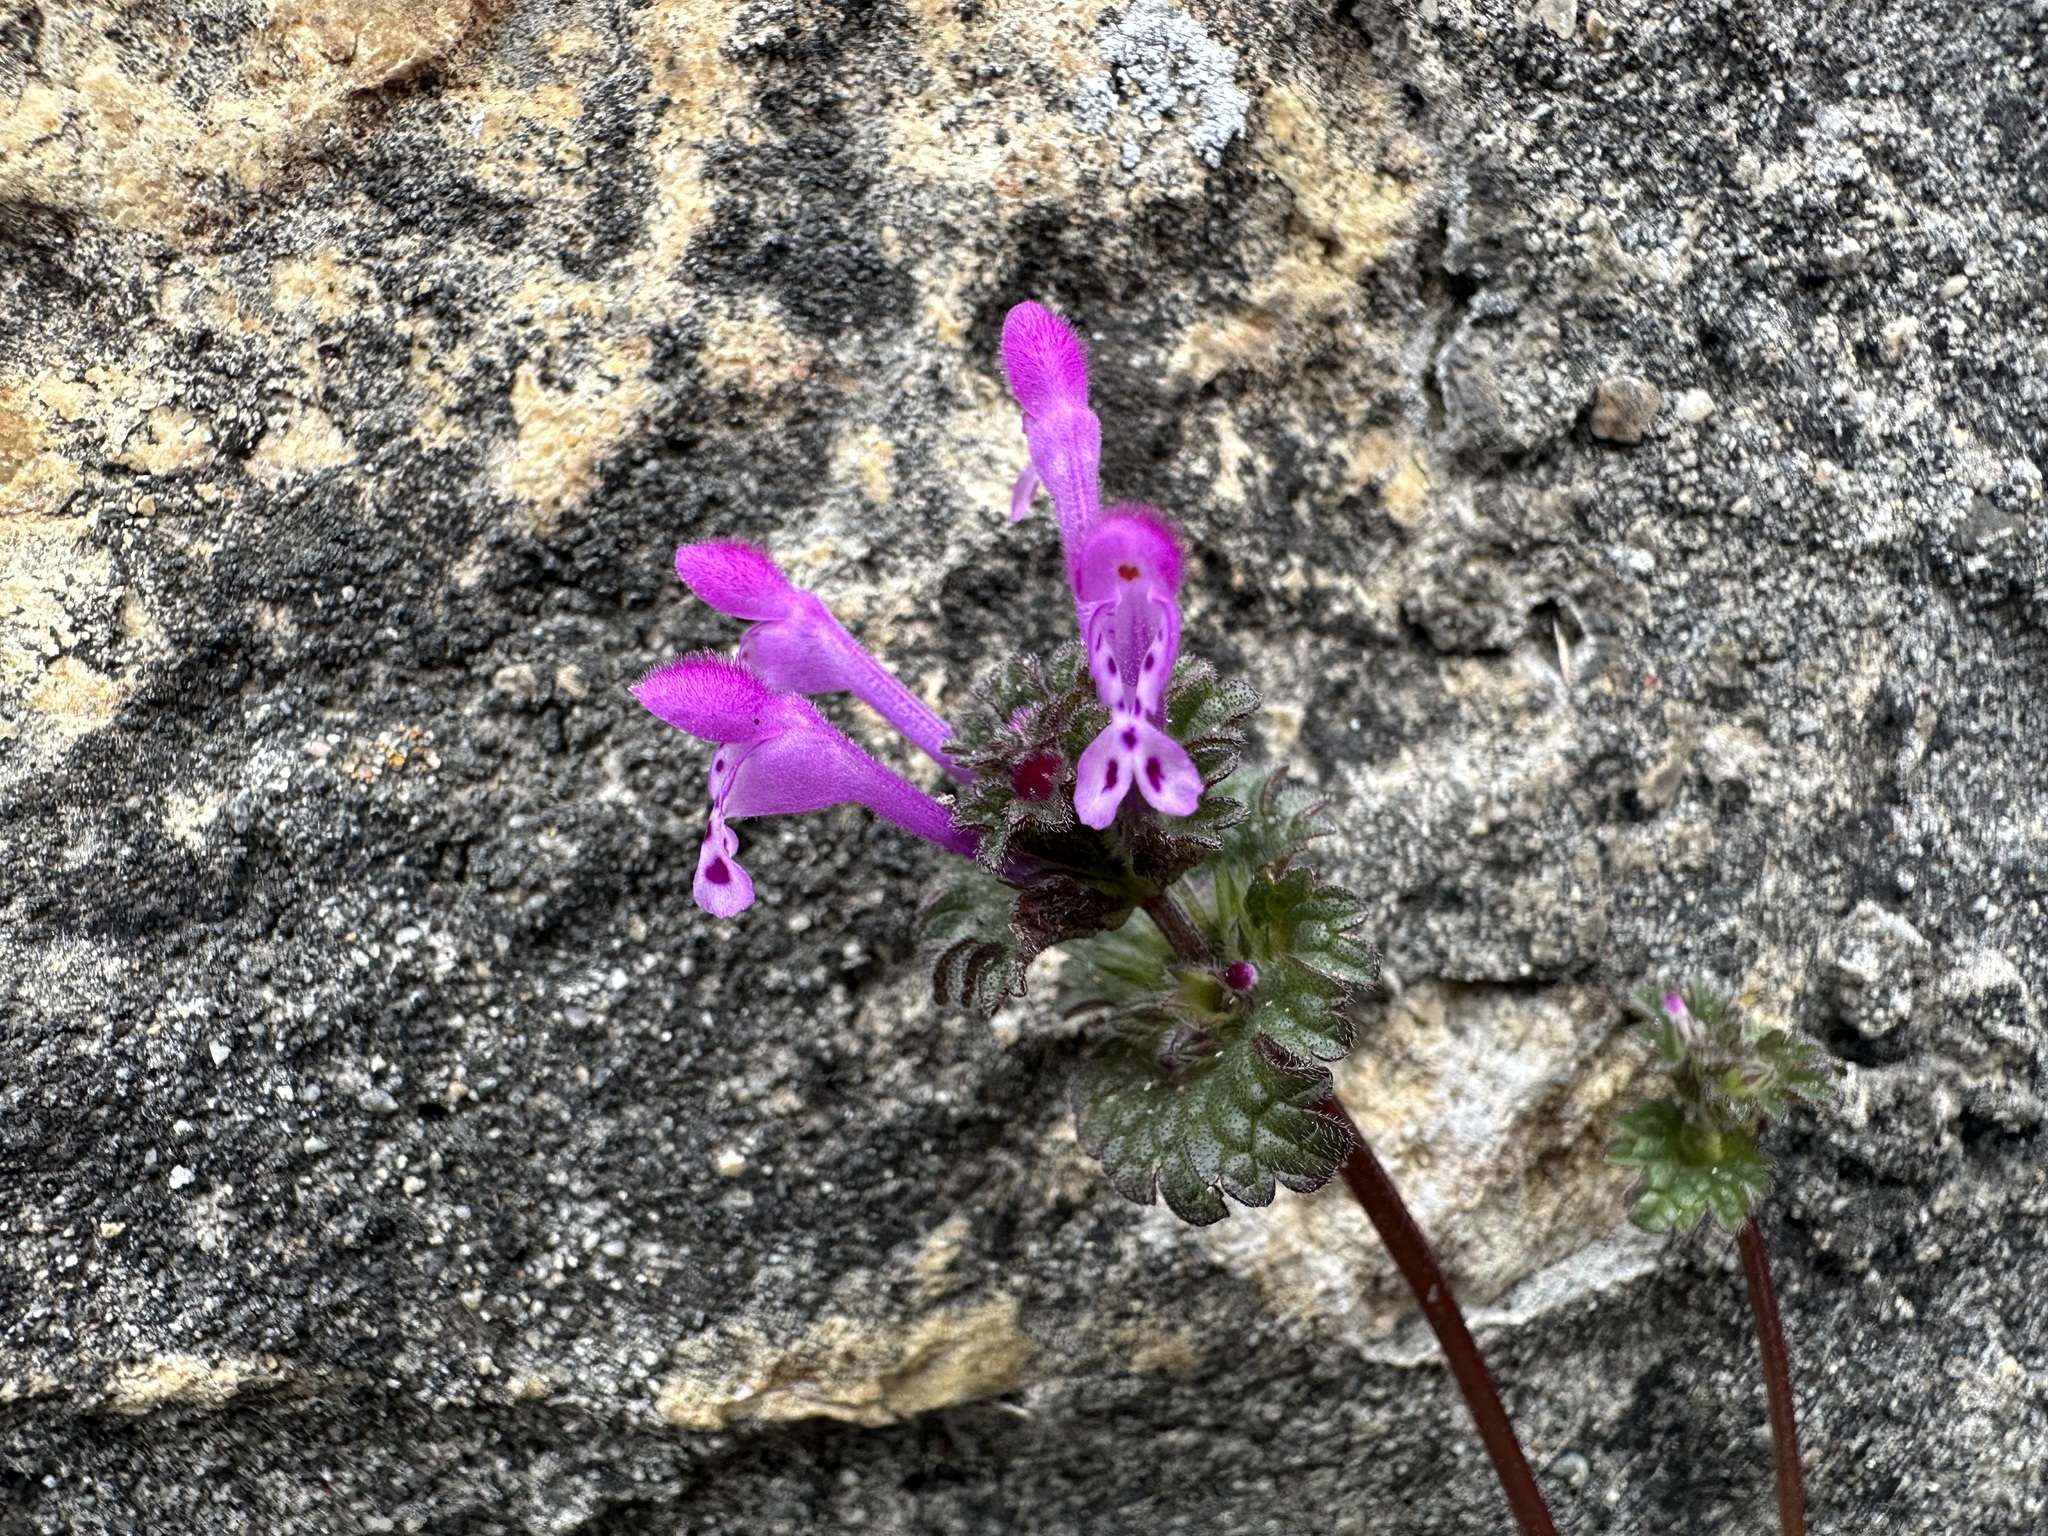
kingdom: Plantae
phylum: Tracheophyta
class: Magnoliopsida
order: Lamiales
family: Lamiaceae
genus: Lamium
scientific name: Lamium amplexicaule
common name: Henbit dead-nettle
